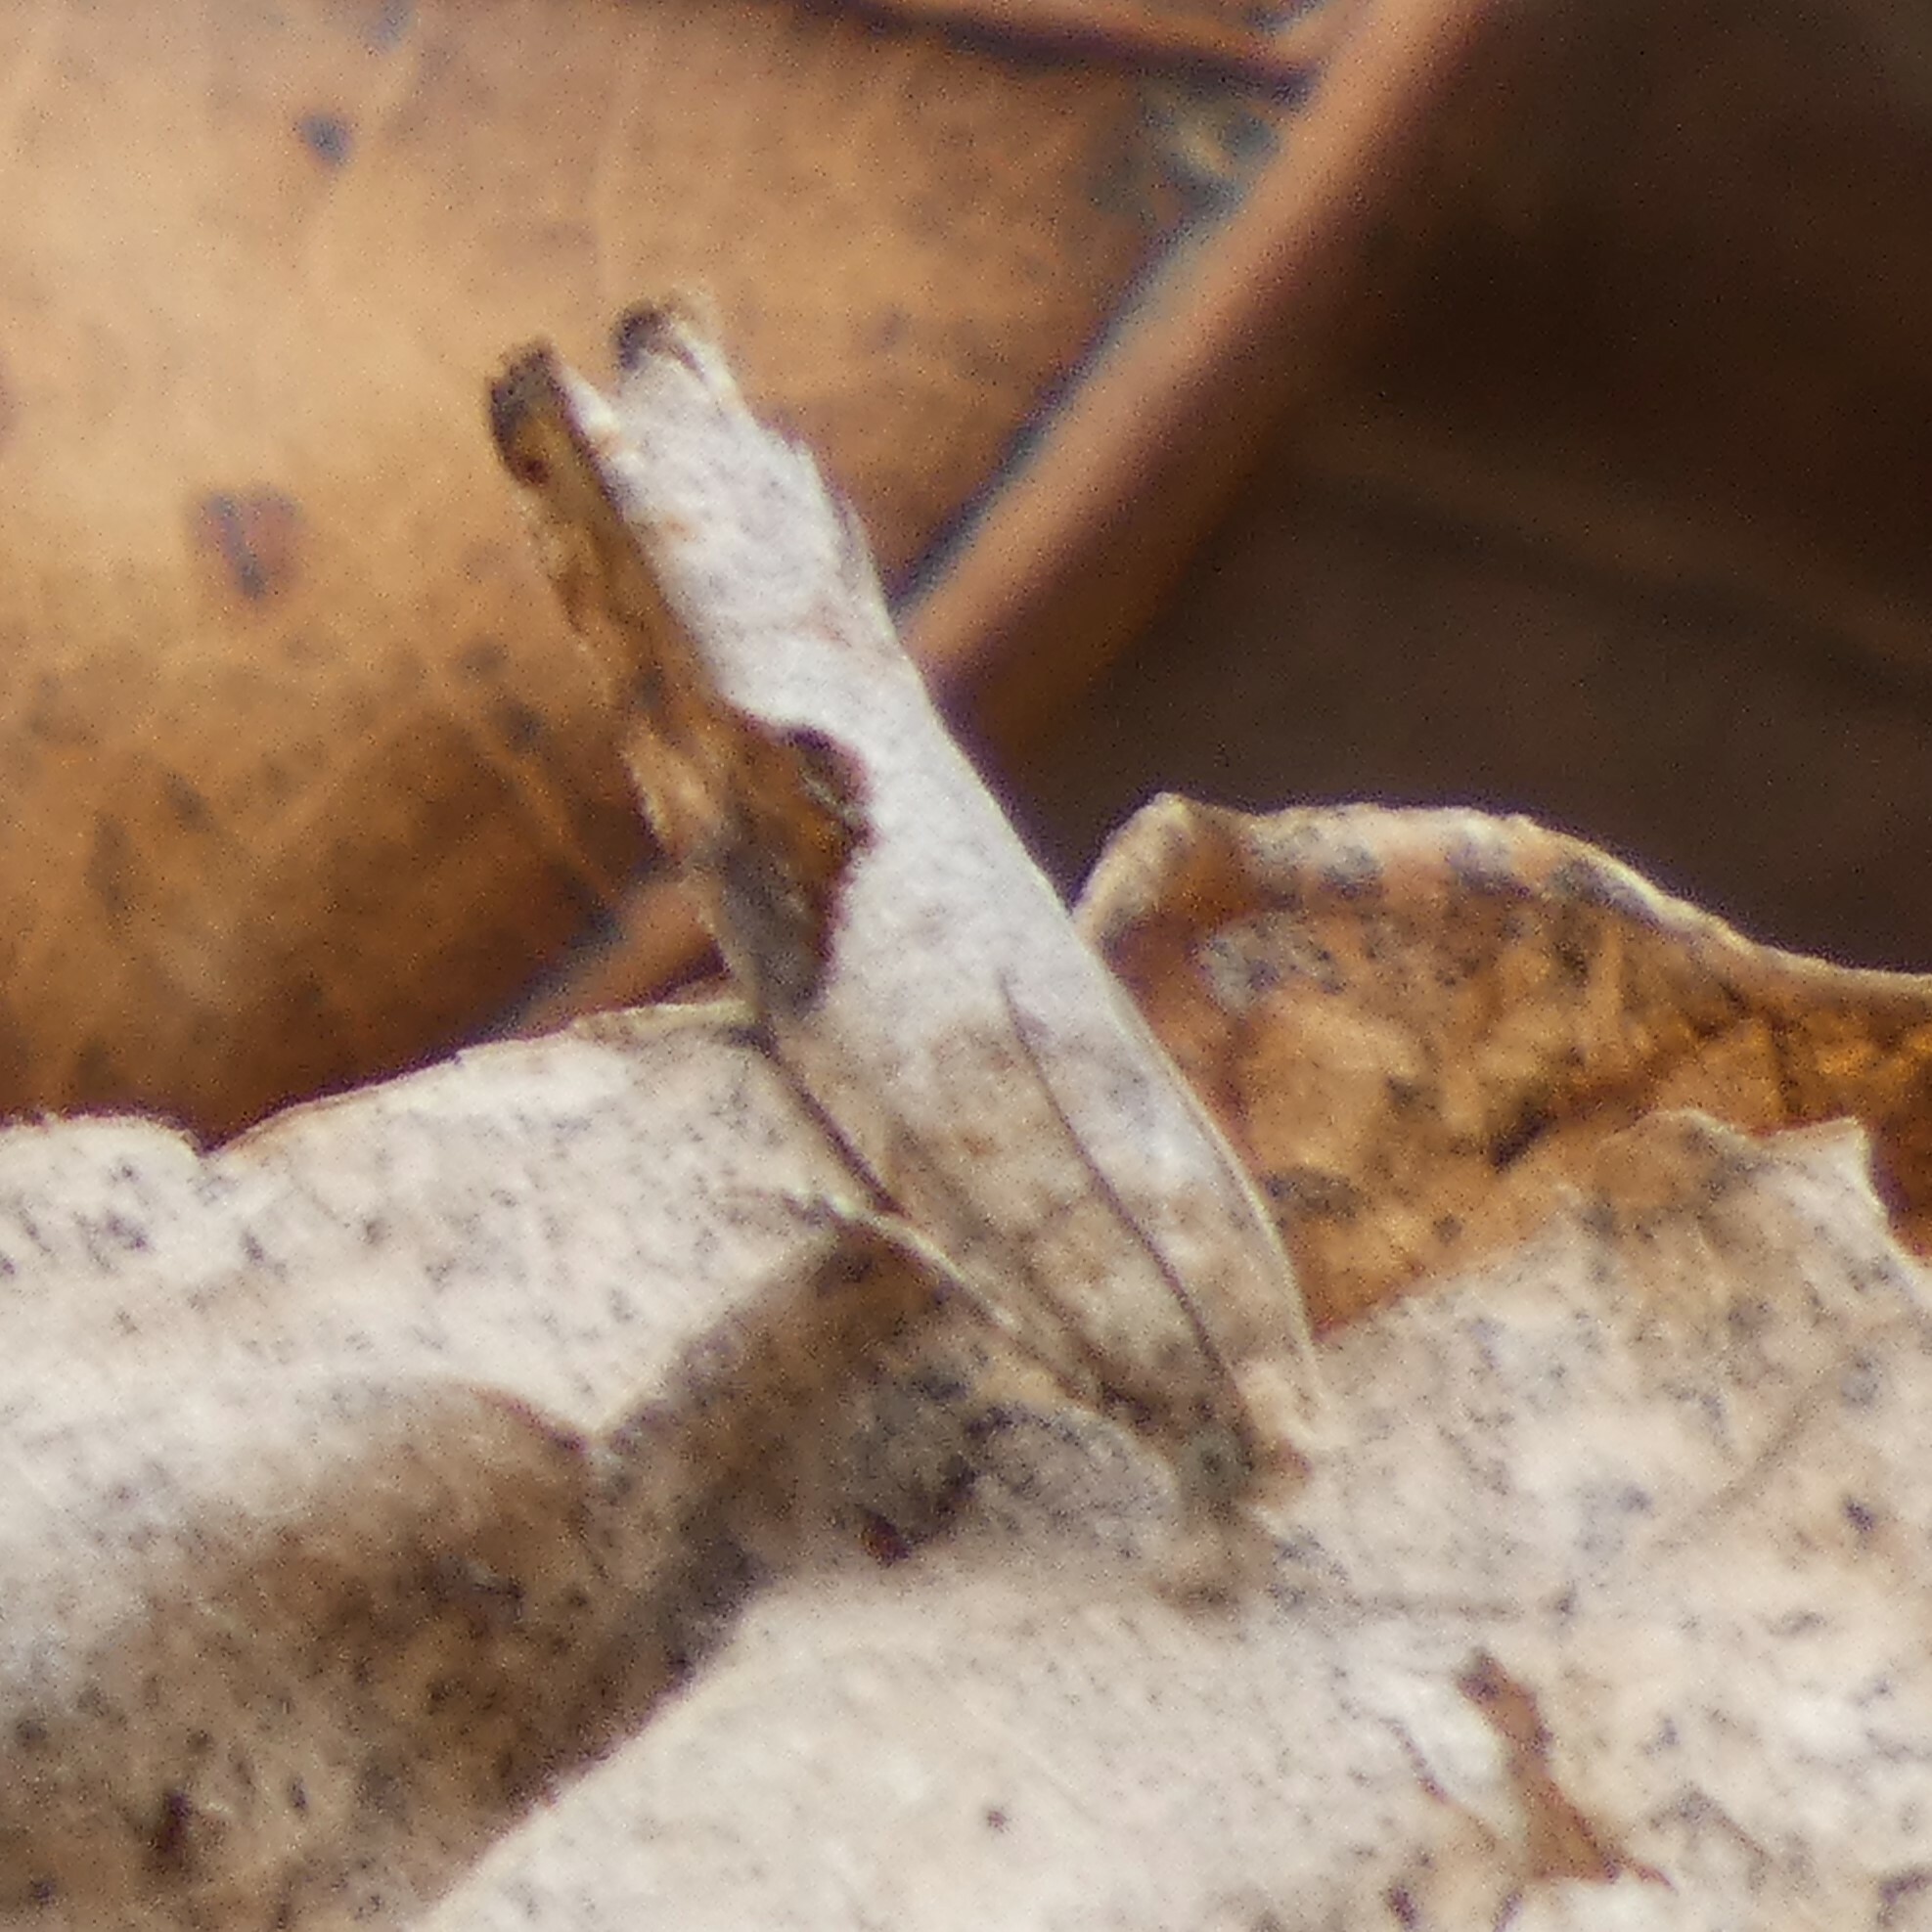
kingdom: Animalia
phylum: Arthropoda
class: Insecta
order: Lepidoptera
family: Tortricidae
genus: Pseudexentera
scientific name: Pseudexentera virginiana
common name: Virginia pseudexentera moth
